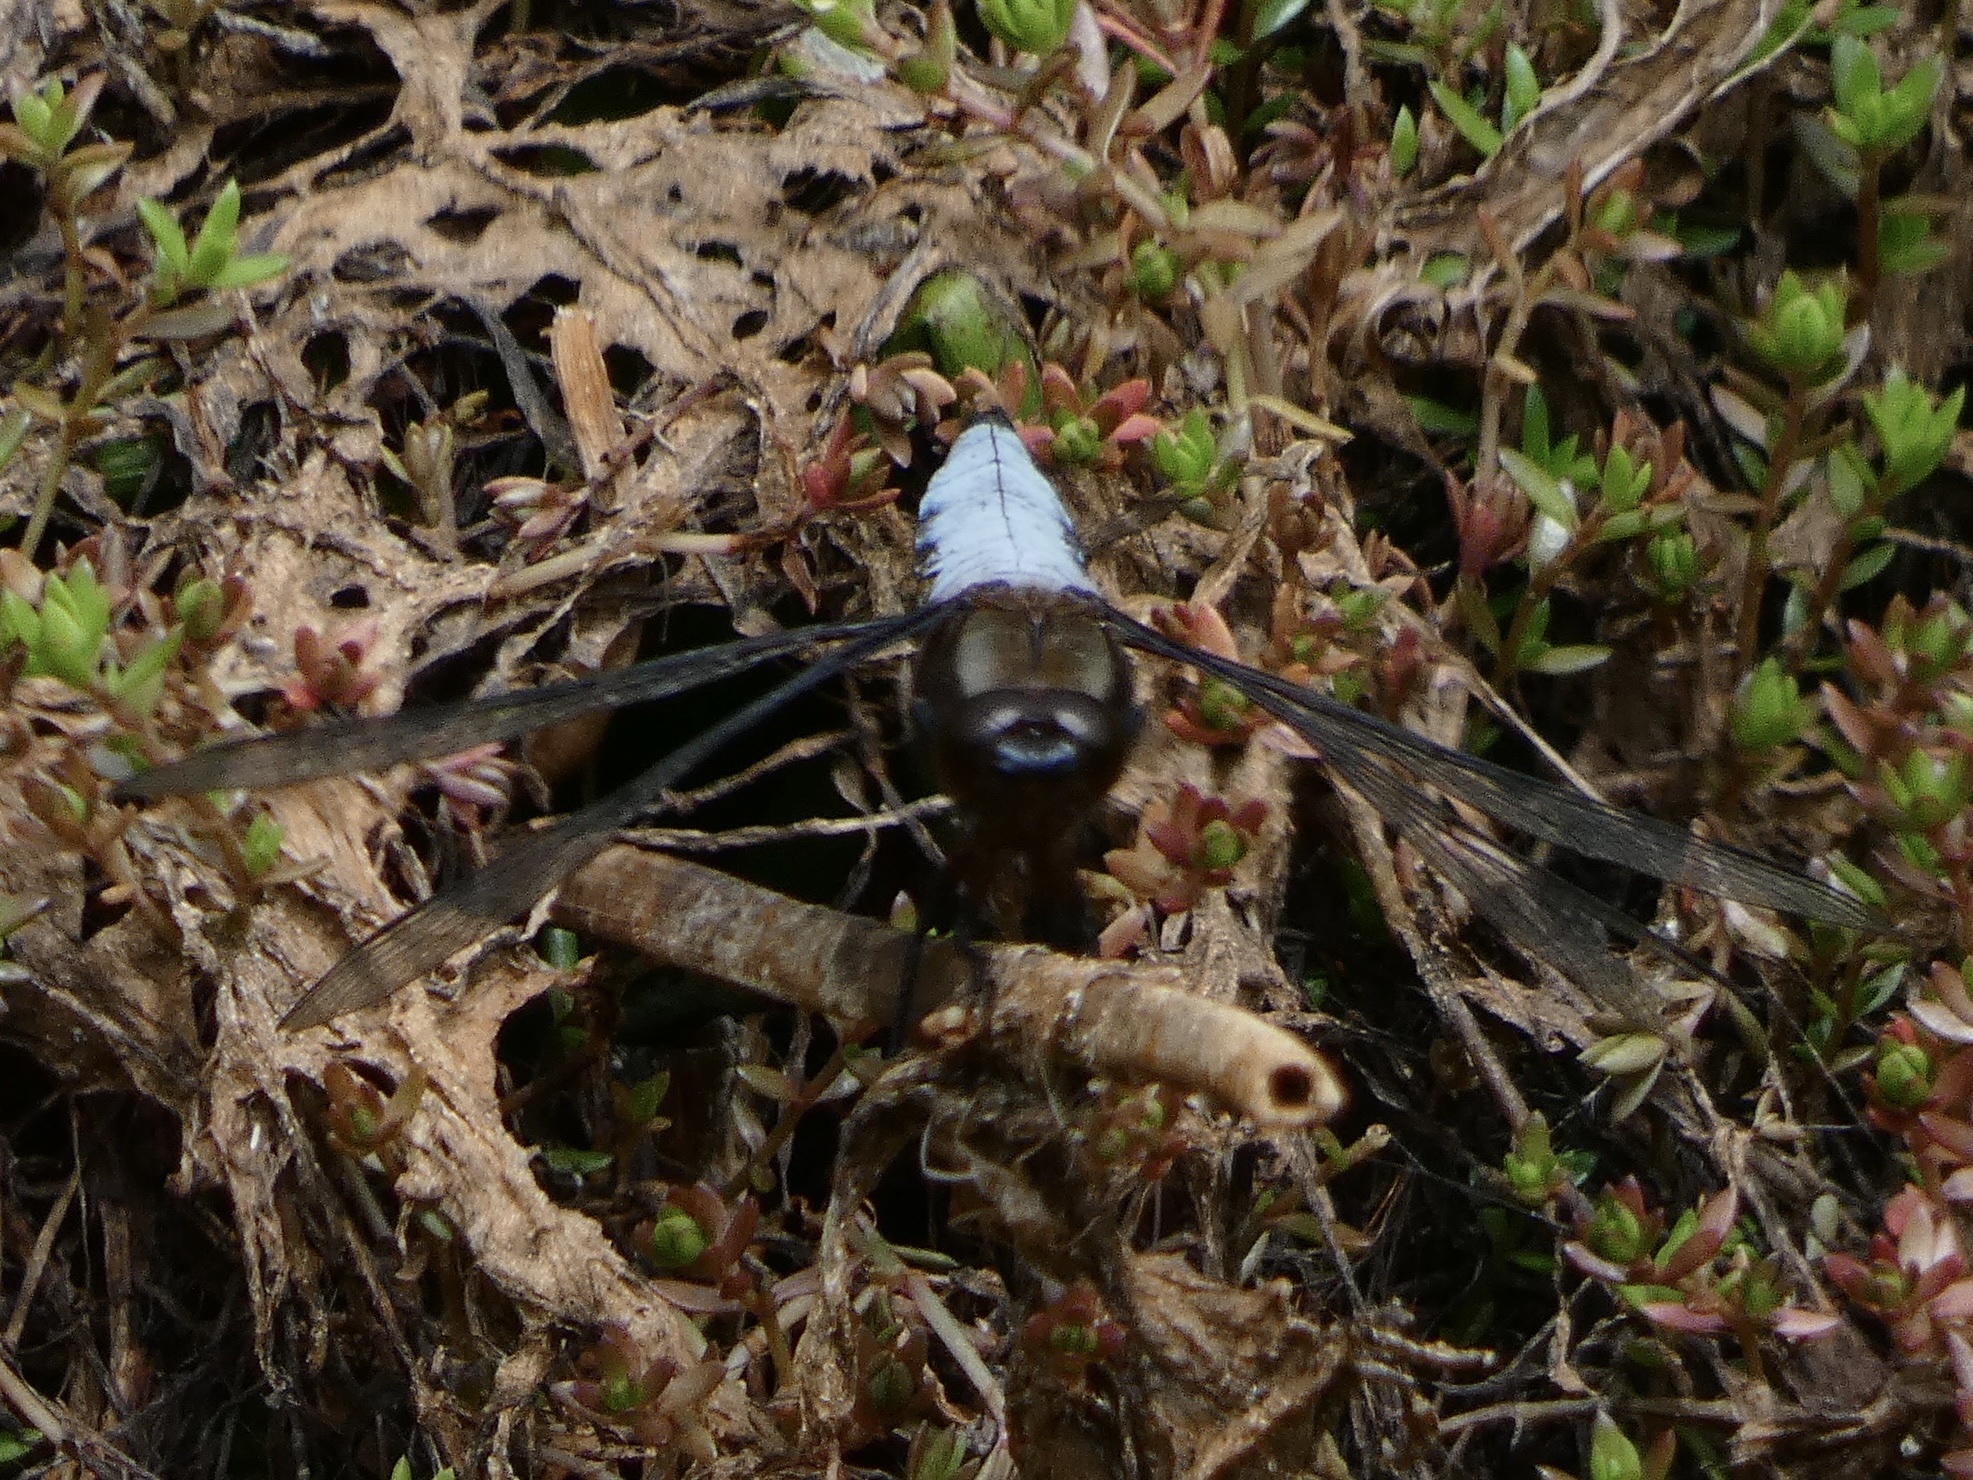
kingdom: Animalia
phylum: Arthropoda
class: Insecta
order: Odonata
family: Libellulidae
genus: Libellula
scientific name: Libellula depressa
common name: Broad-bodied chaser
